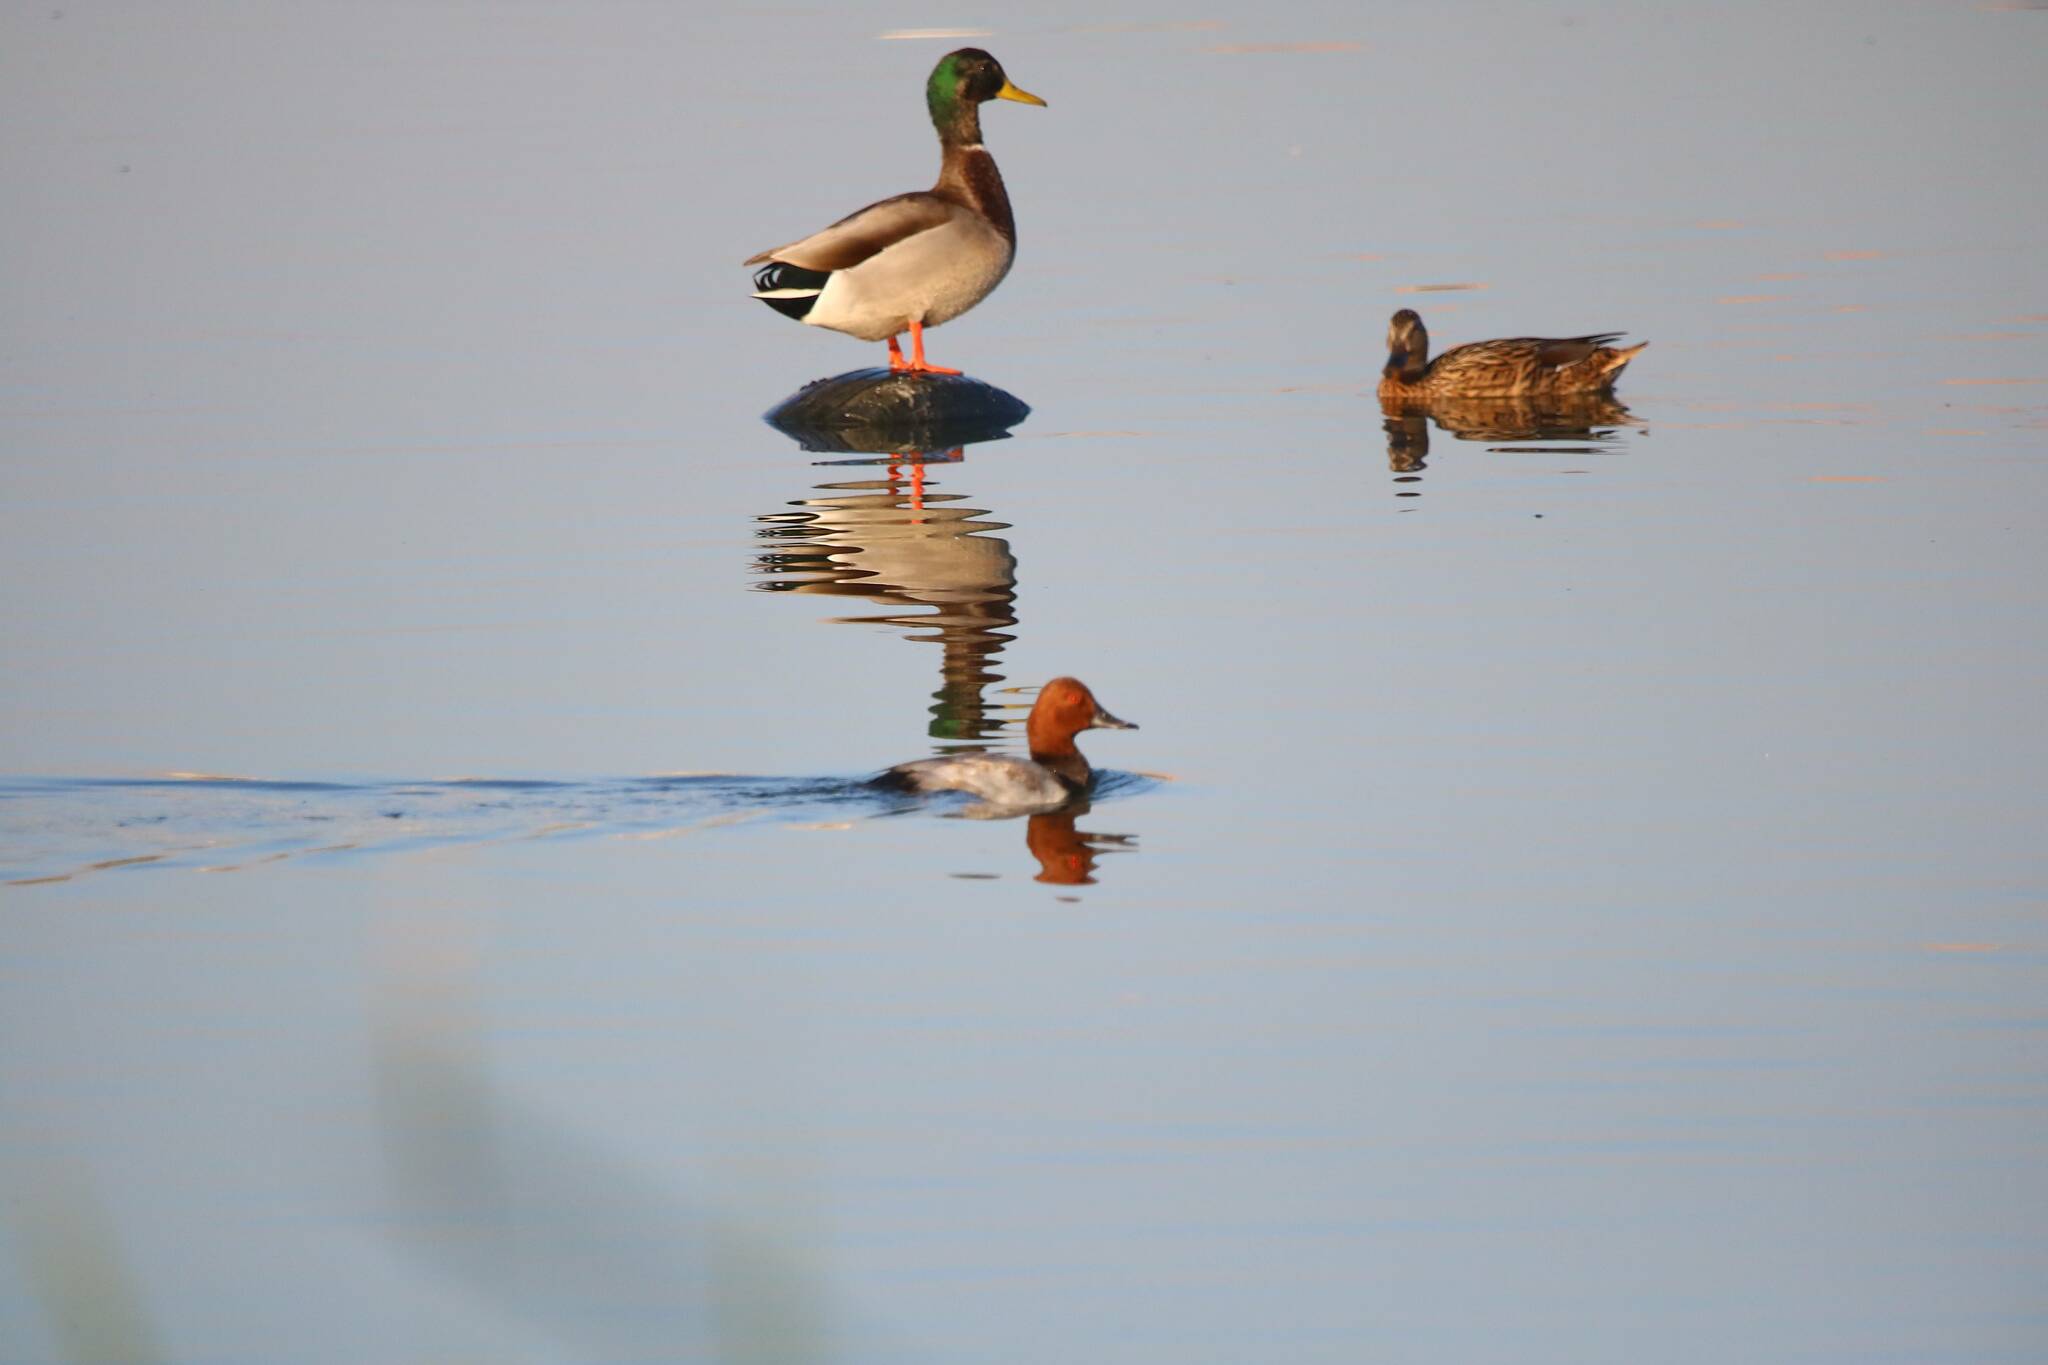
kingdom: Animalia
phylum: Chordata
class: Aves
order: Anseriformes
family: Anatidae
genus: Aythya
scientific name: Aythya ferina
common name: Common pochard
